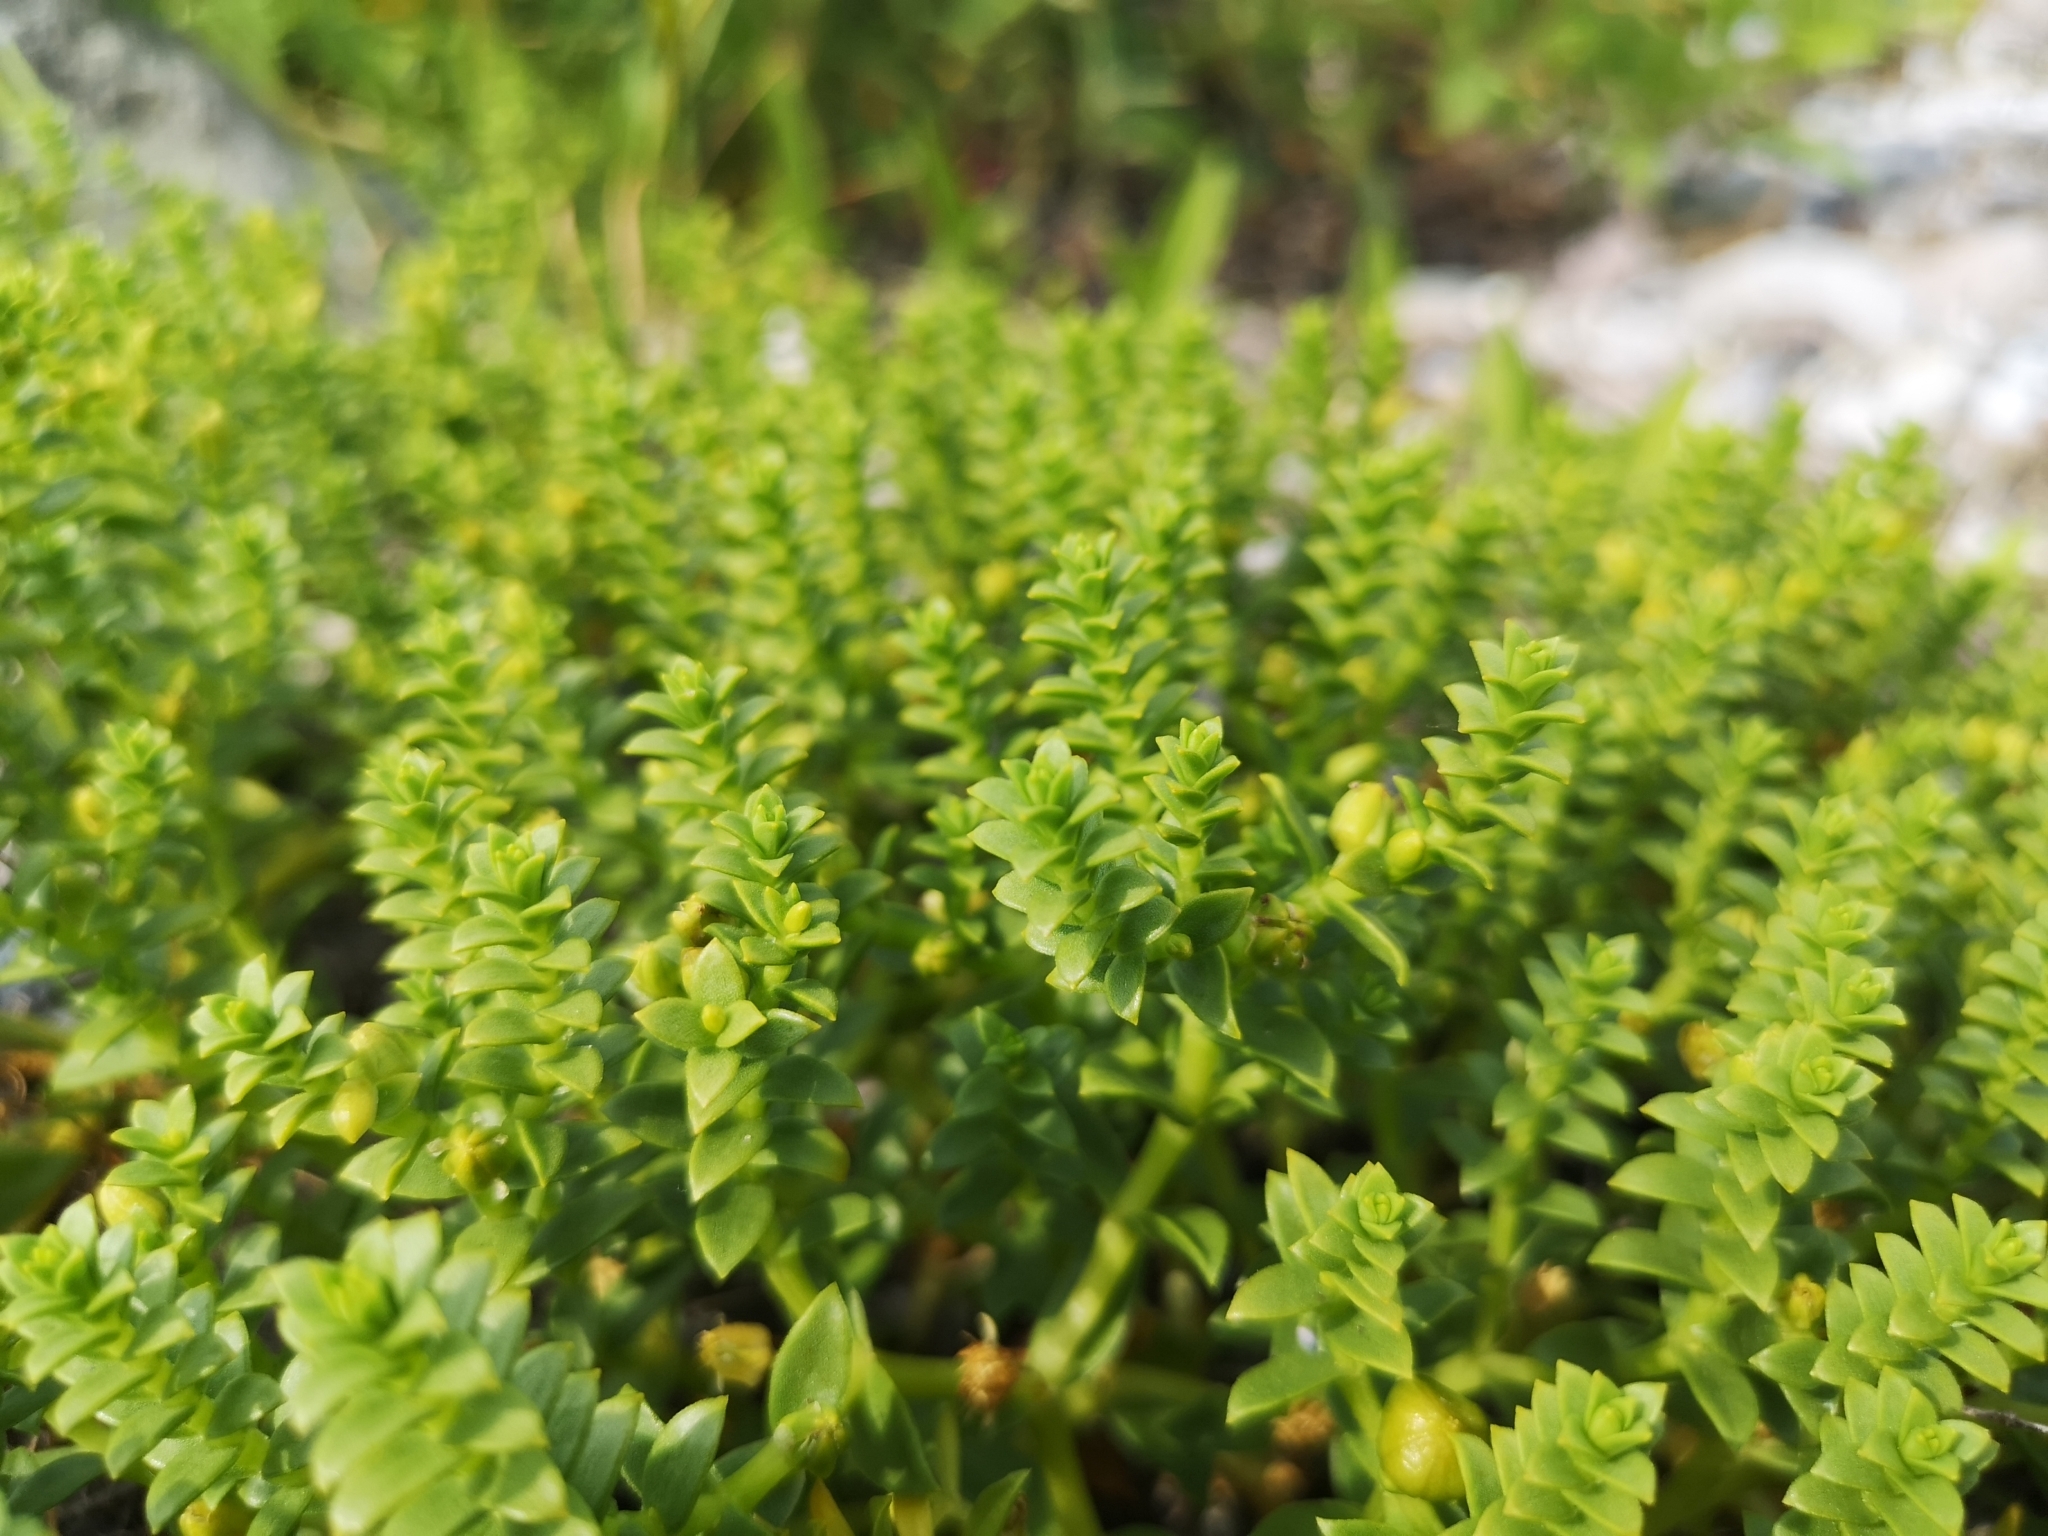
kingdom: Plantae
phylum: Tracheophyta
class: Magnoliopsida
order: Caryophyllales
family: Caryophyllaceae
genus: Honckenya
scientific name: Honckenya peploides
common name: Sea sandwort
